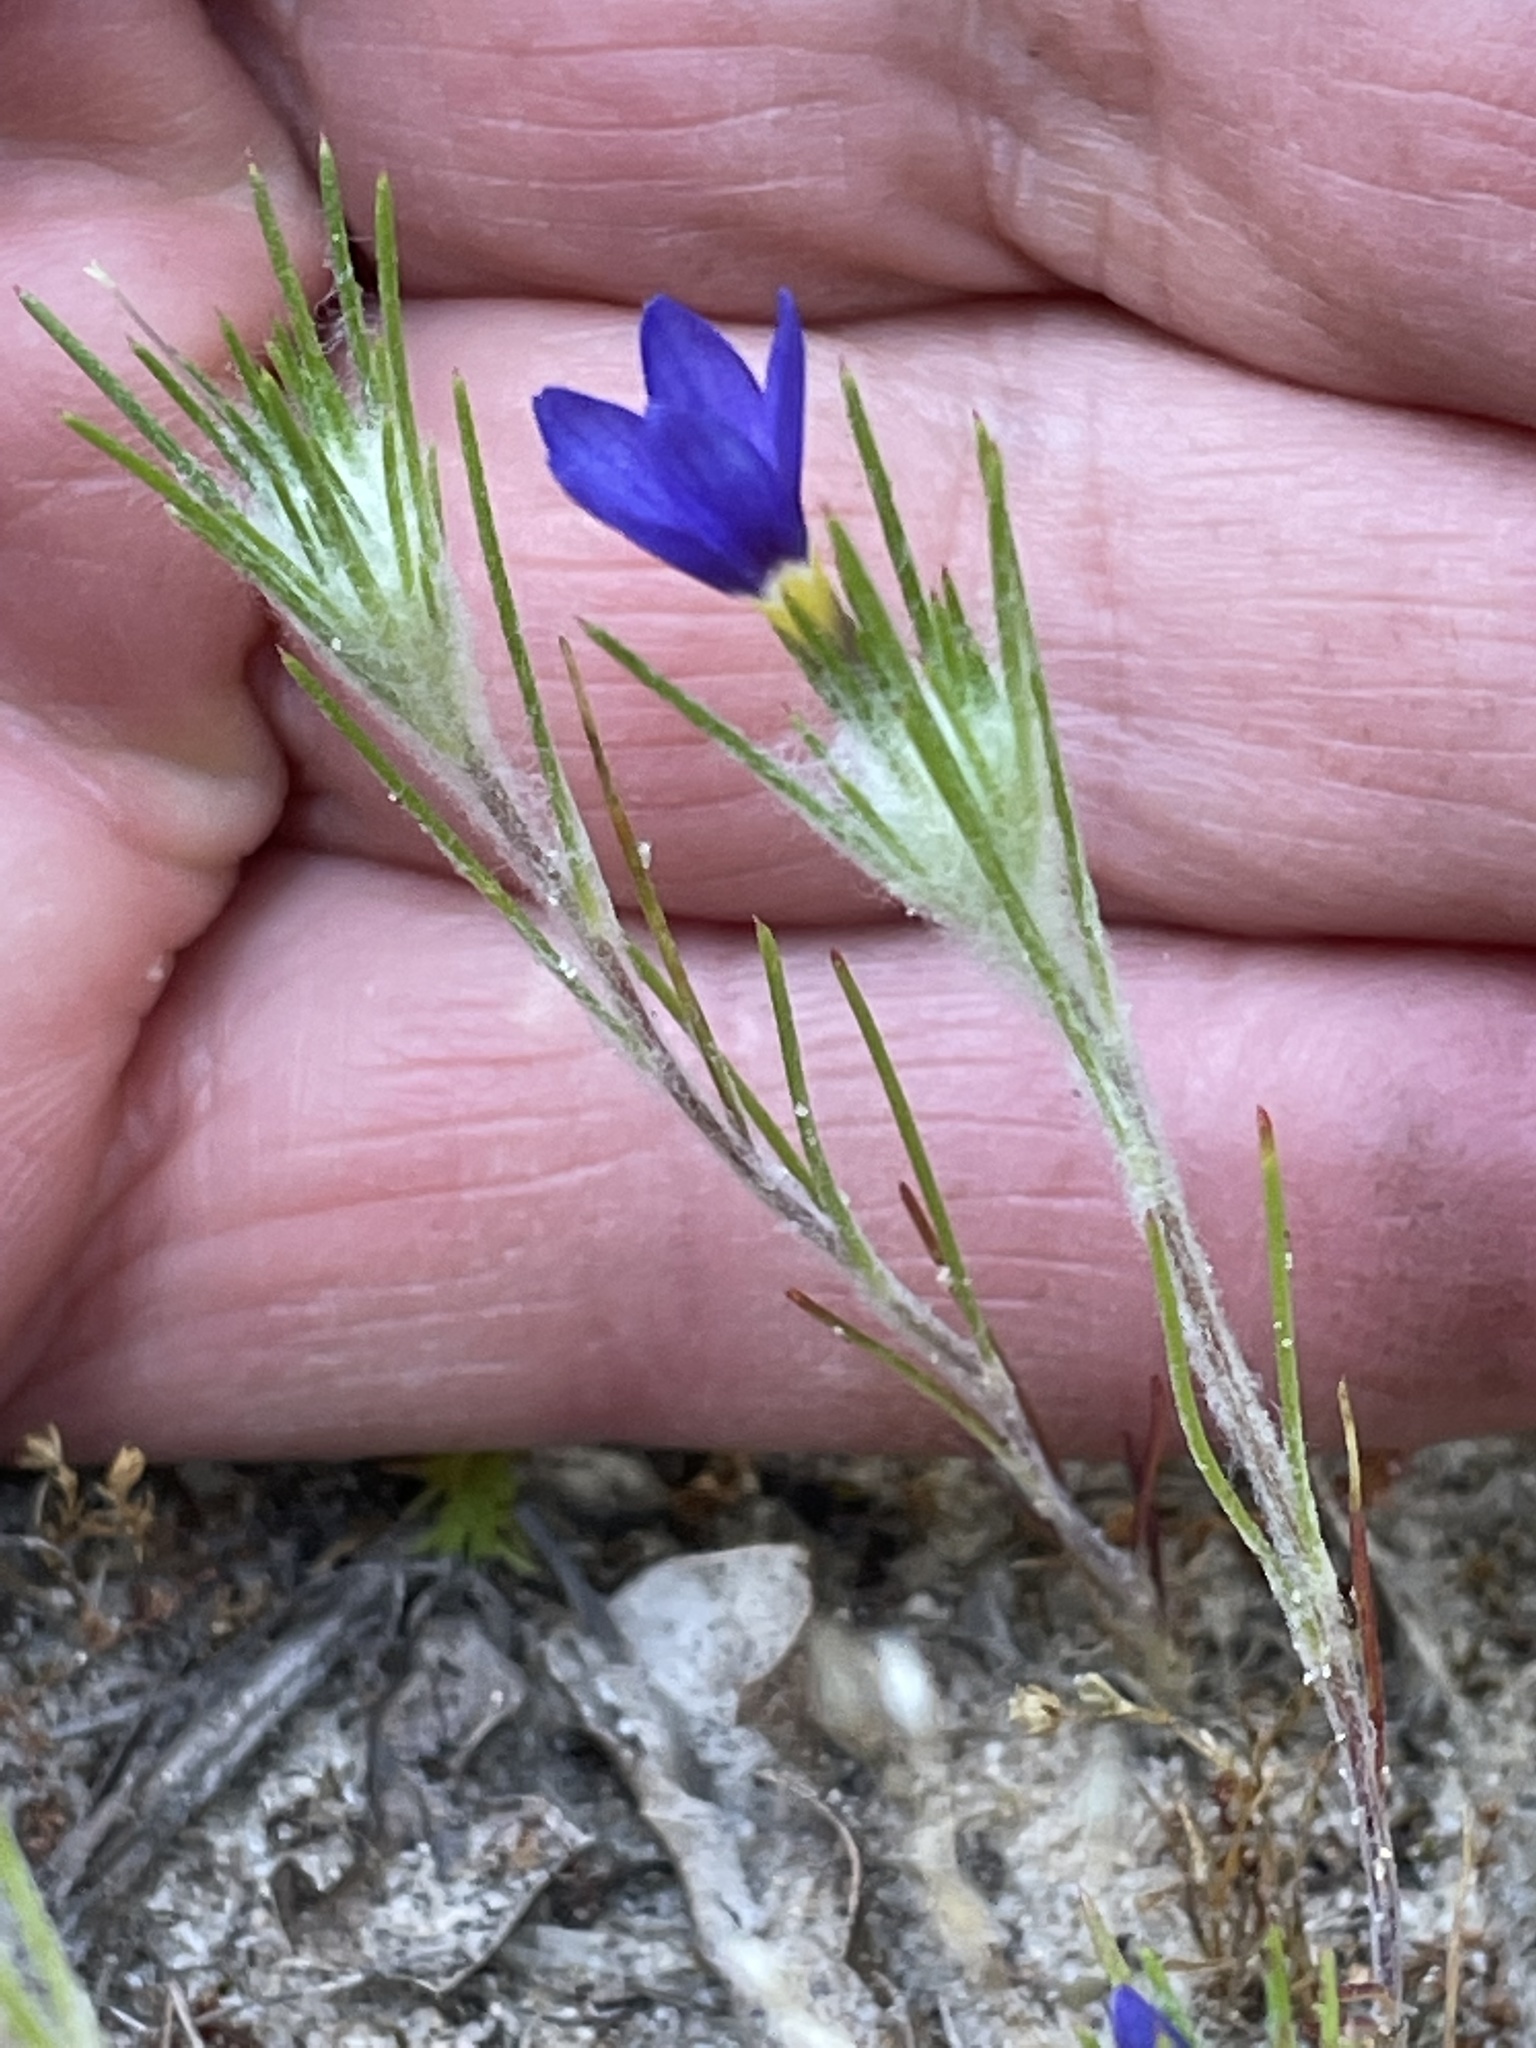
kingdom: Plantae
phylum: Tracheophyta
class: Magnoliopsida
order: Ericales
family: Polemoniaceae
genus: Eriastrum
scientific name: Eriastrum virgatum
